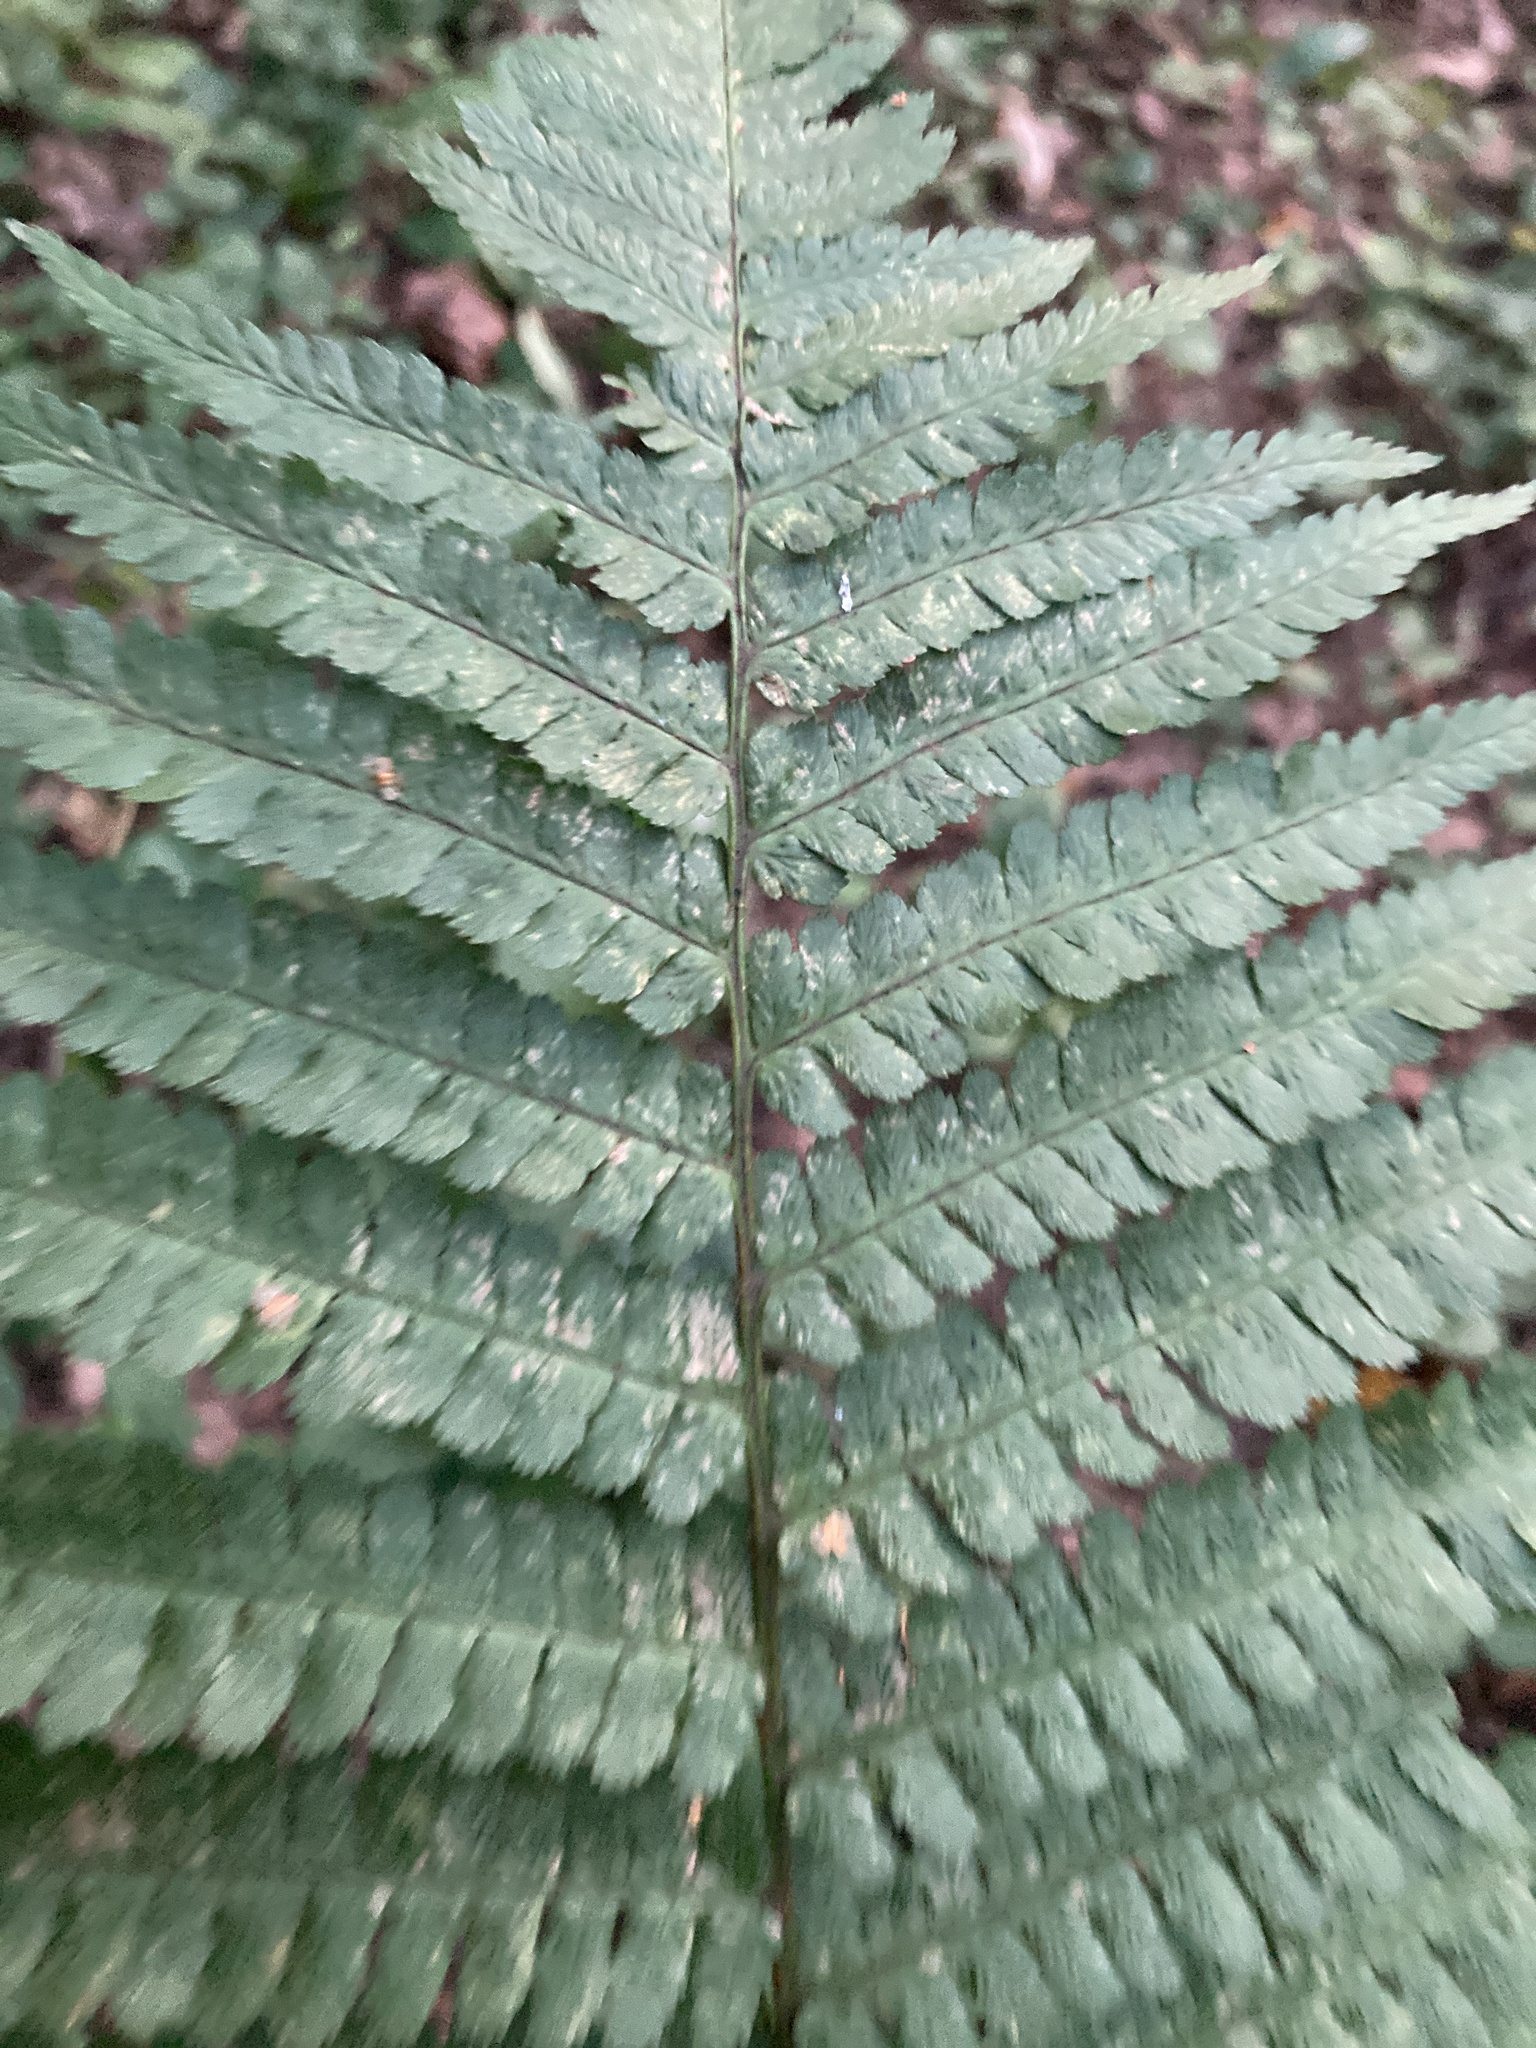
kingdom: Plantae
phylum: Tracheophyta
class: Polypodiopsida
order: Polypodiales
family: Dryopteridaceae
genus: Dryopteris
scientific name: Dryopteris filix-mas
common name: Male fern
